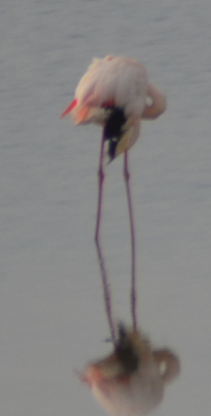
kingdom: Animalia
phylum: Chordata
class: Aves
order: Phoenicopteriformes
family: Phoenicopteridae
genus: Phoenicopterus
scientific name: Phoenicopterus roseus
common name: Greater flamingo
